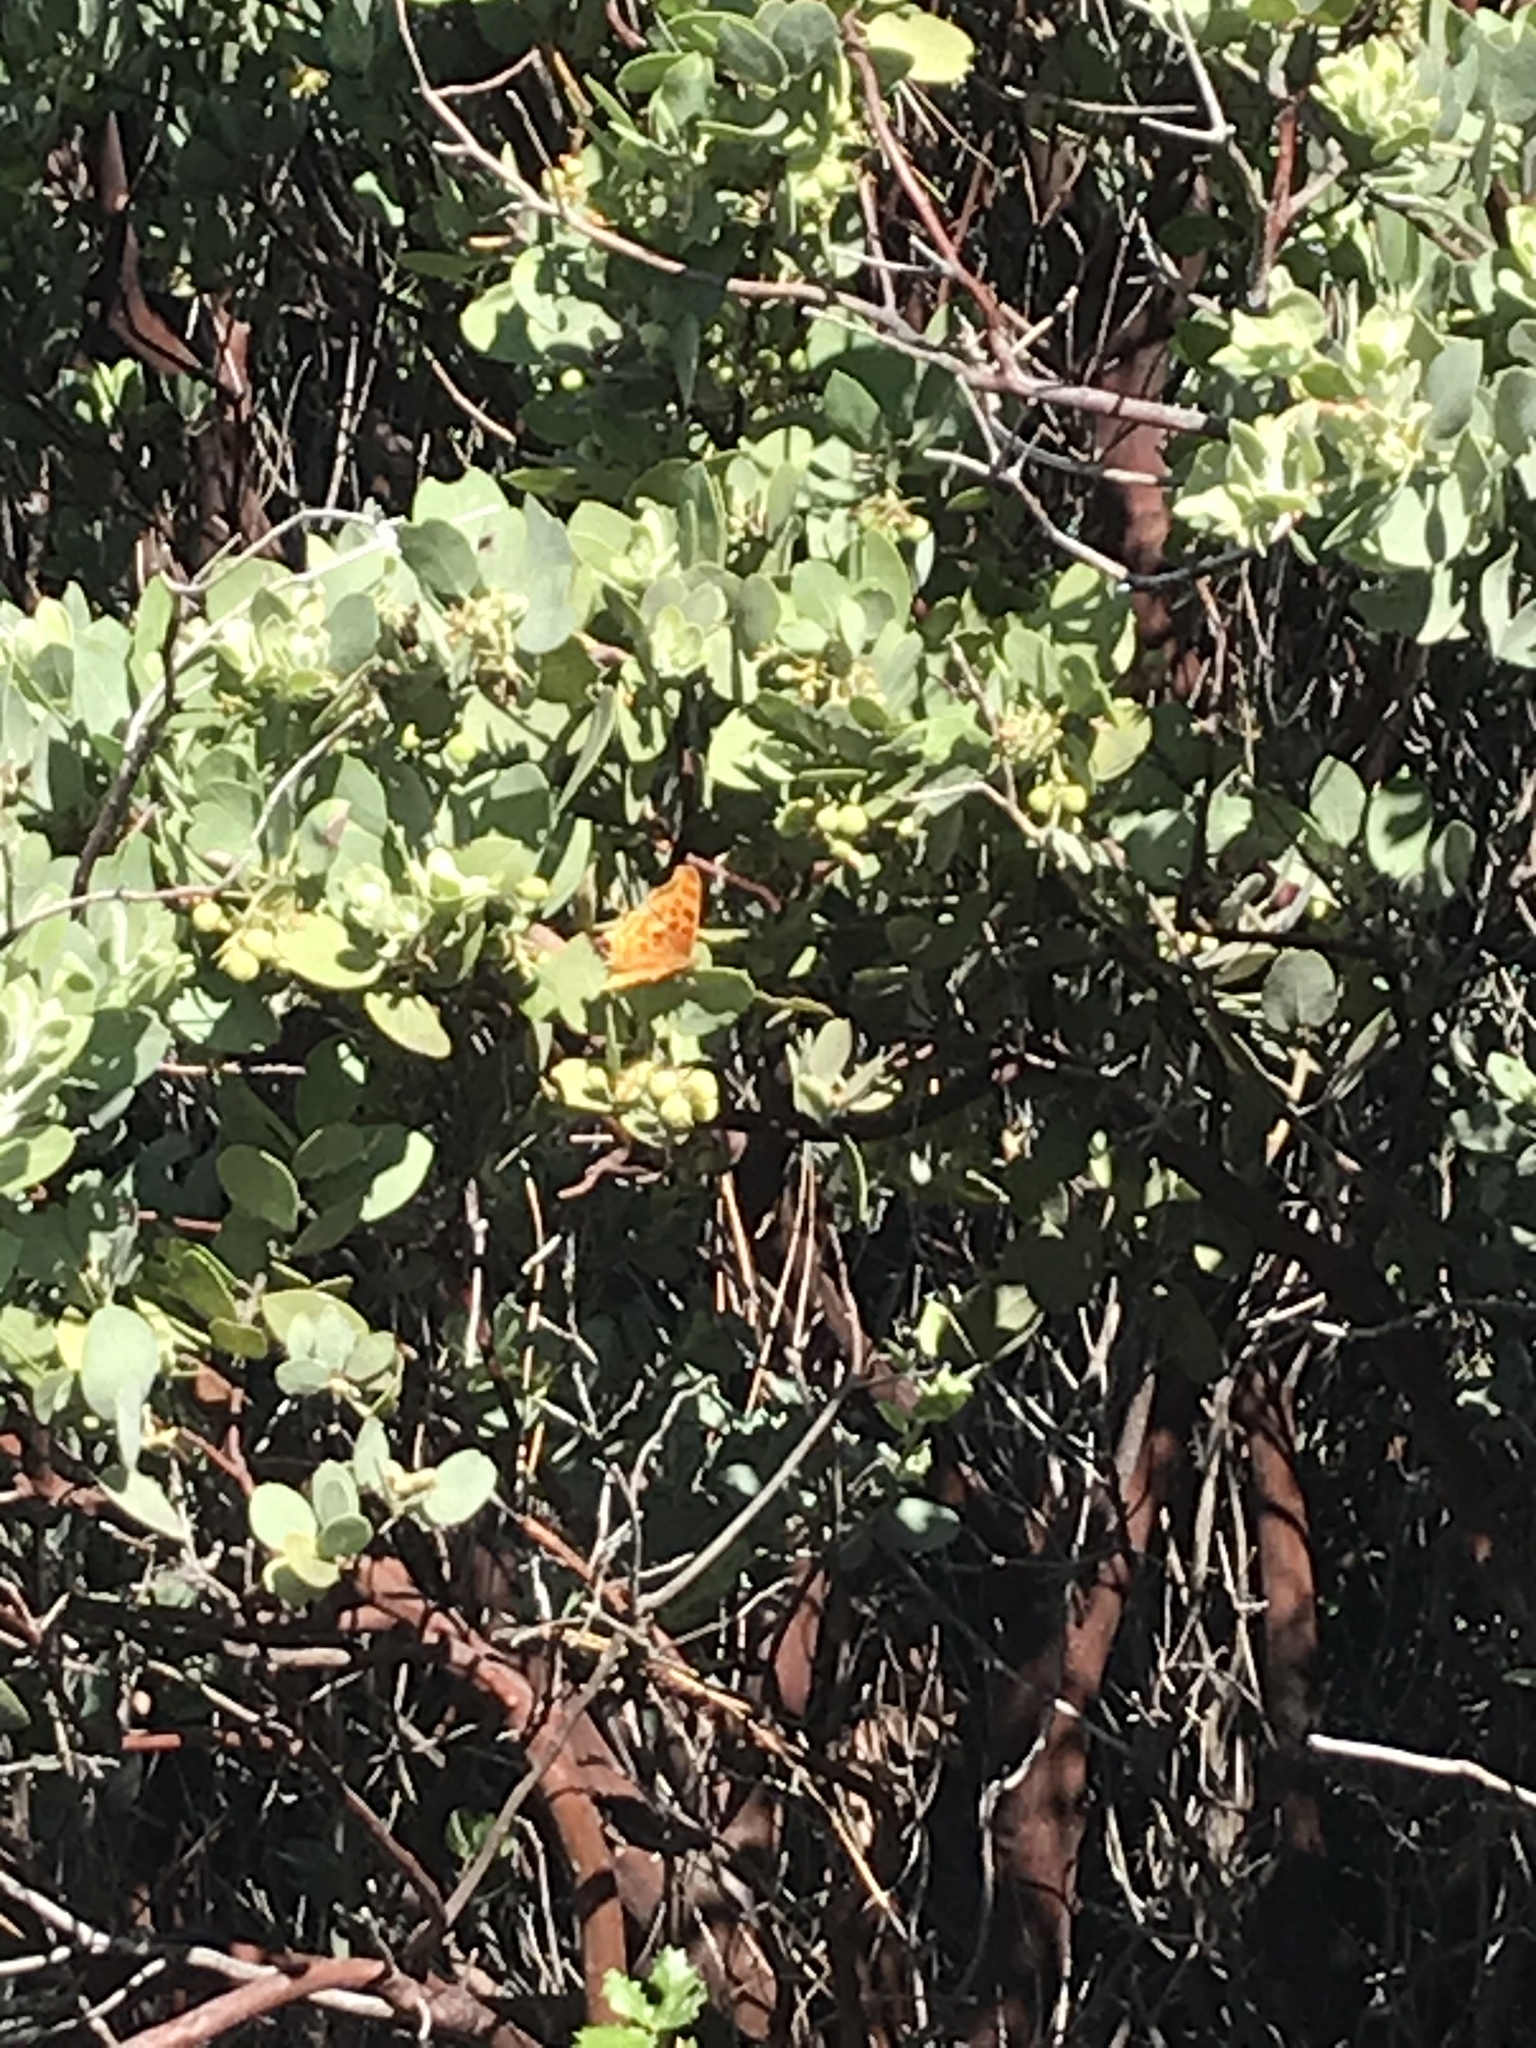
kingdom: Animalia
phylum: Arthropoda
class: Insecta
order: Lepidoptera
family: Nymphalidae
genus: Polygonia
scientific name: Polygonia satyrus
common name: Satyr angle wing
